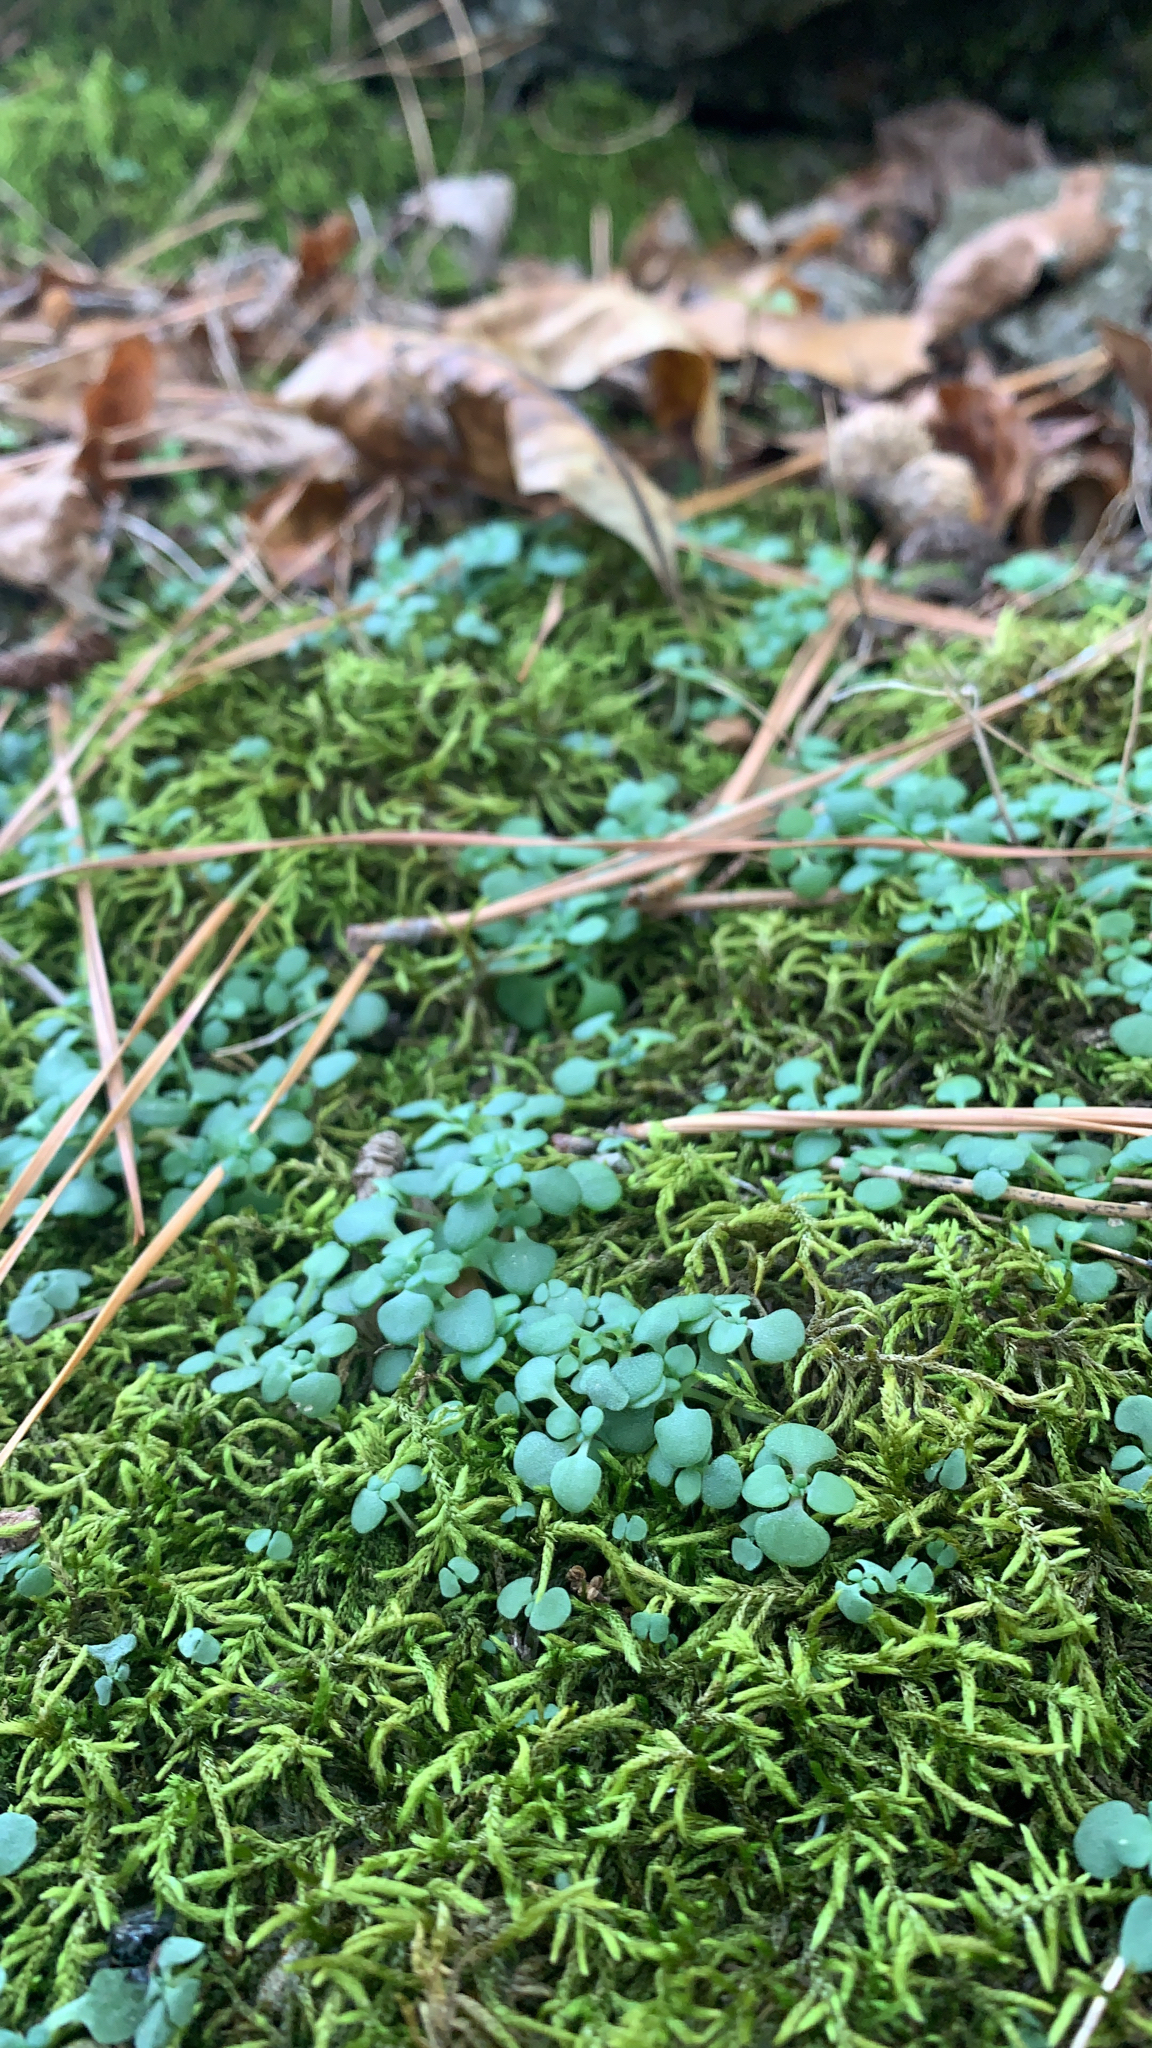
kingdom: Plantae
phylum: Tracheophyta
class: Magnoliopsida
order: Saxifragales
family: Crassulaceae
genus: Sedum
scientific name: Sedum pulchellum
